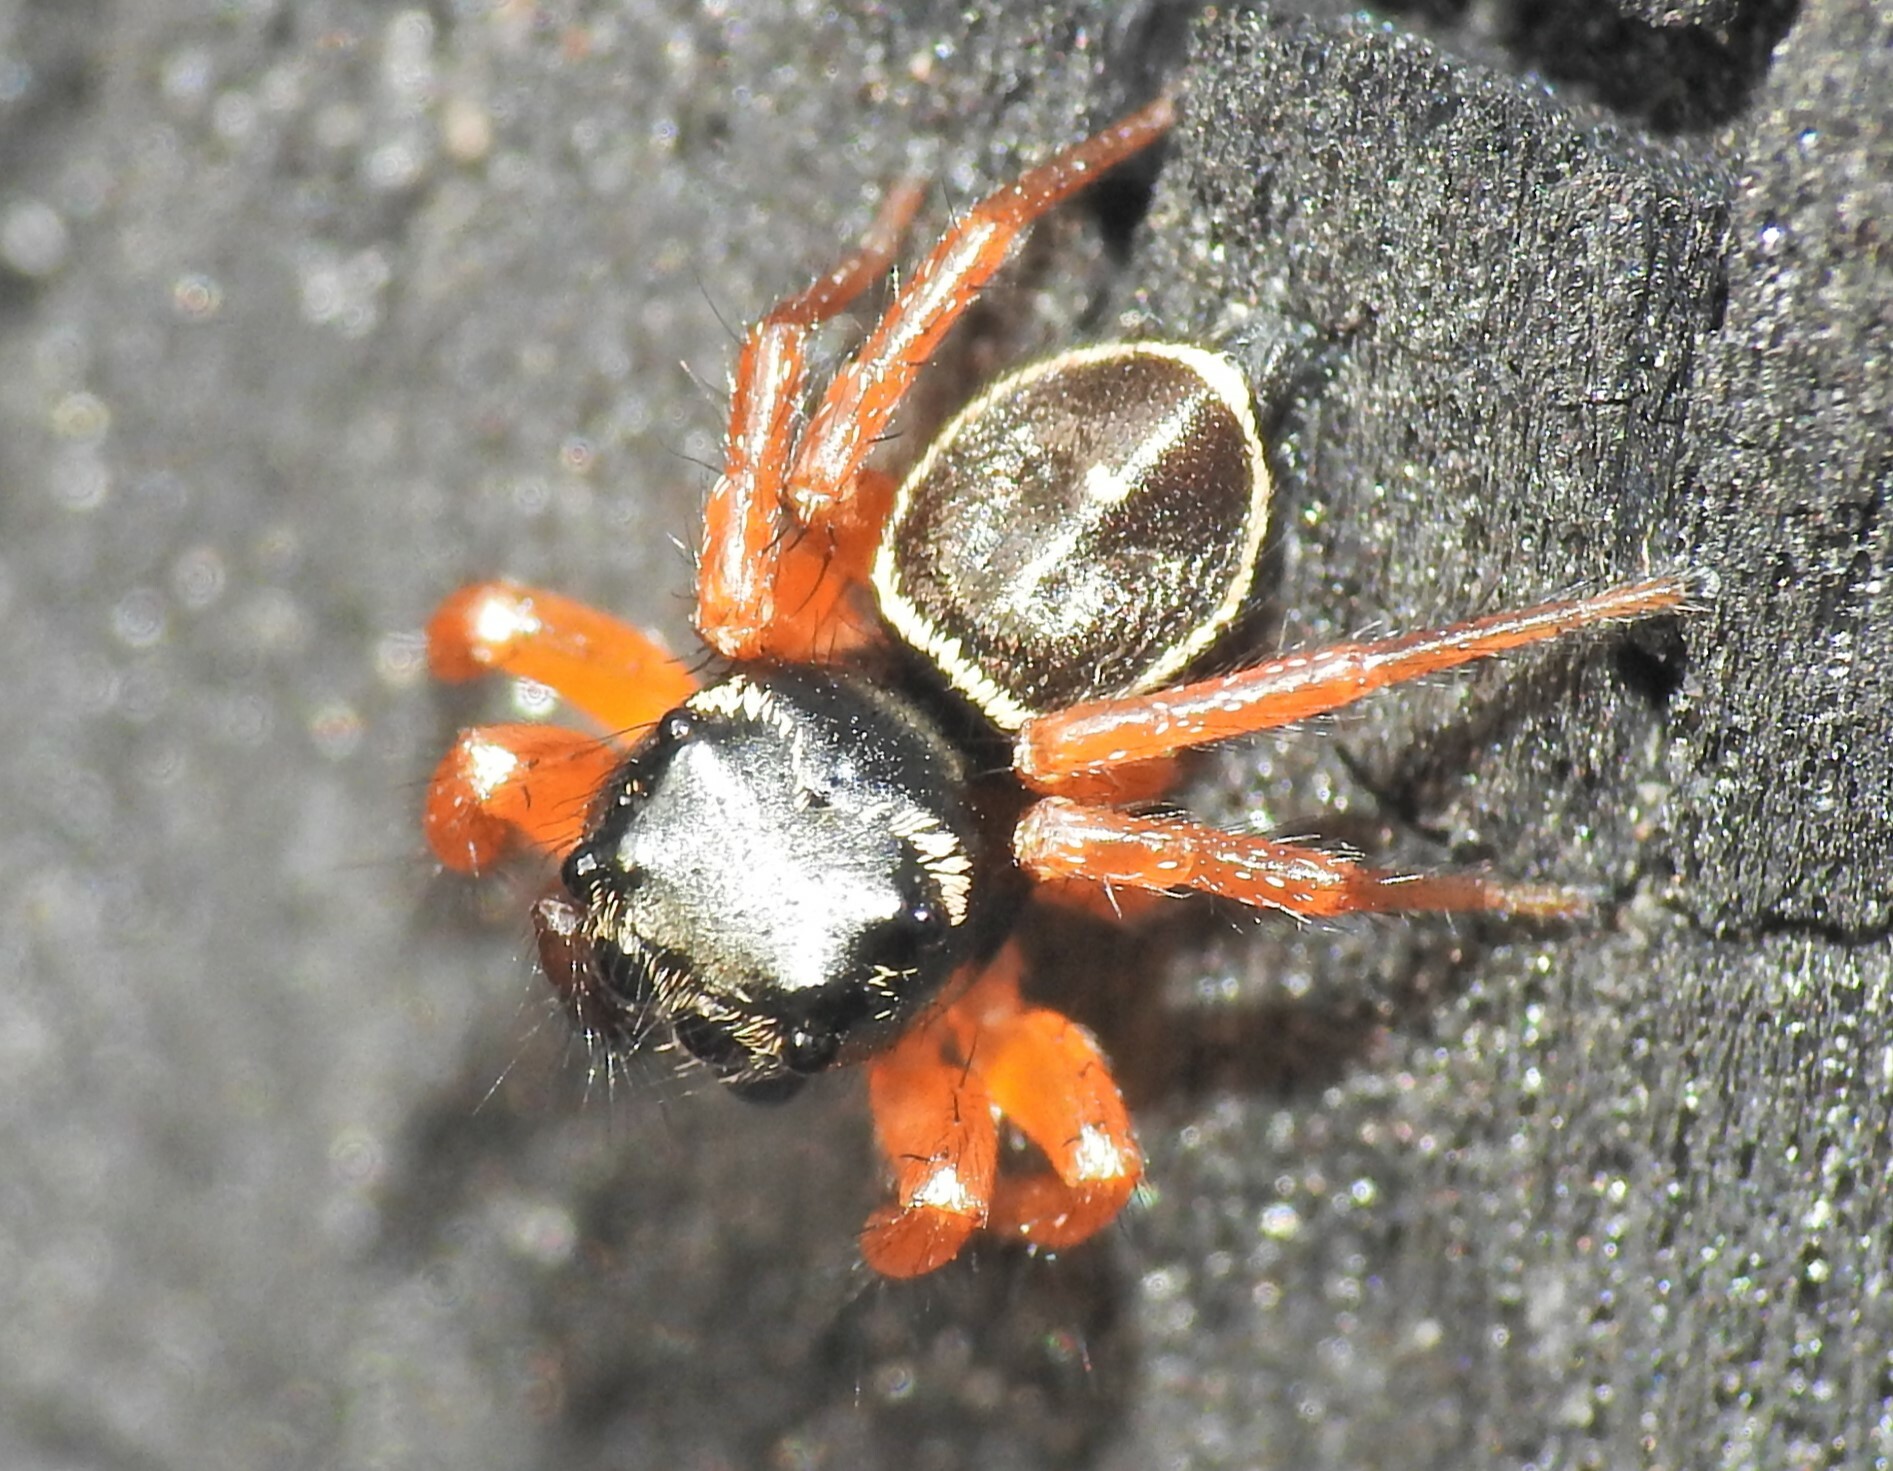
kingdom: Animalia
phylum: Arthropoda
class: Arachnida
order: Araneae
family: Salticidae
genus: Zenodorus
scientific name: Zenodorus orbiculatus
